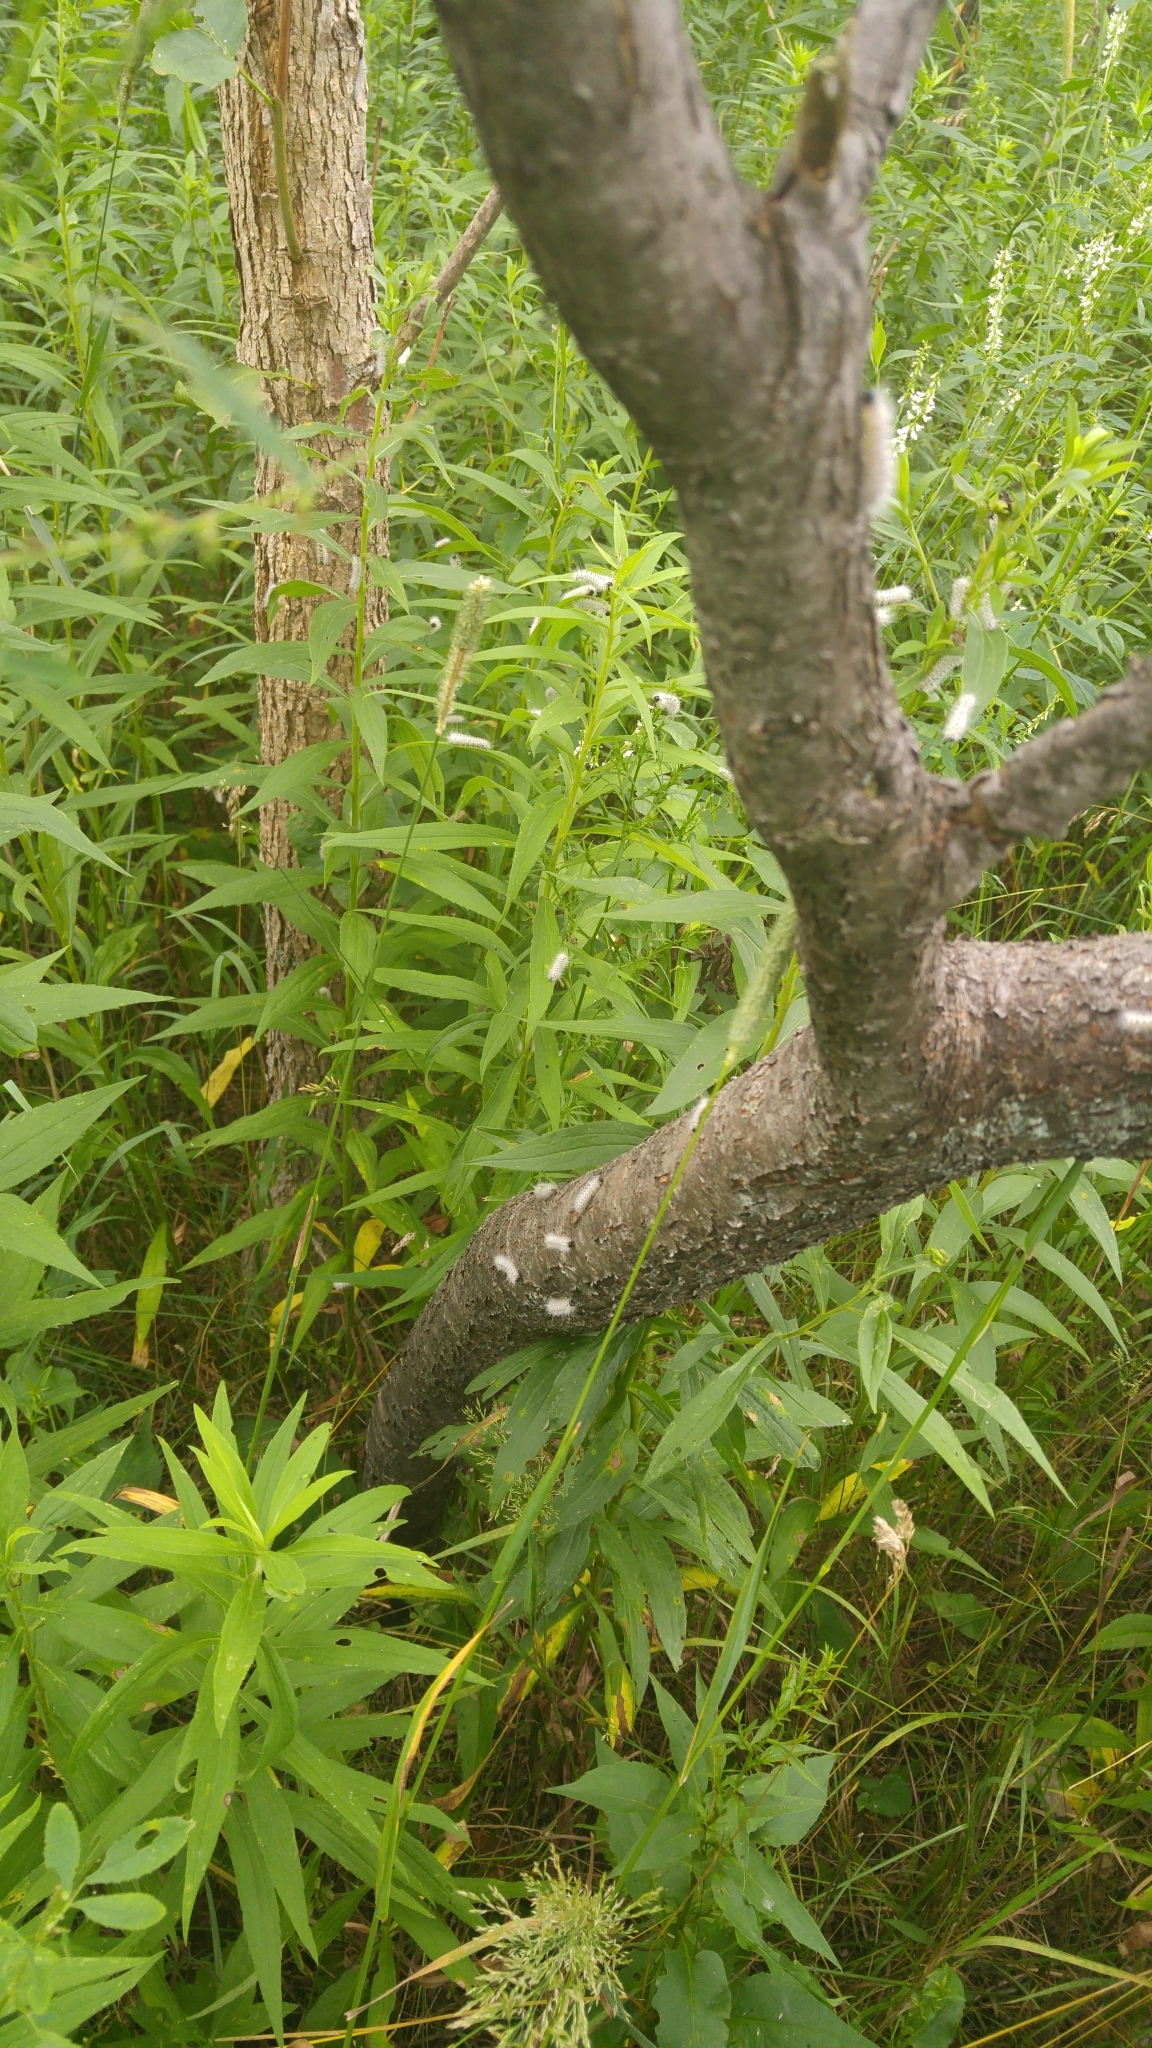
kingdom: Animalia
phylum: Arthropoda
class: Insecta
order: Lepidoptera
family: Erebidae
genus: Lophocampa
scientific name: Lophocampa caryae
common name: Hickory tussock moth
